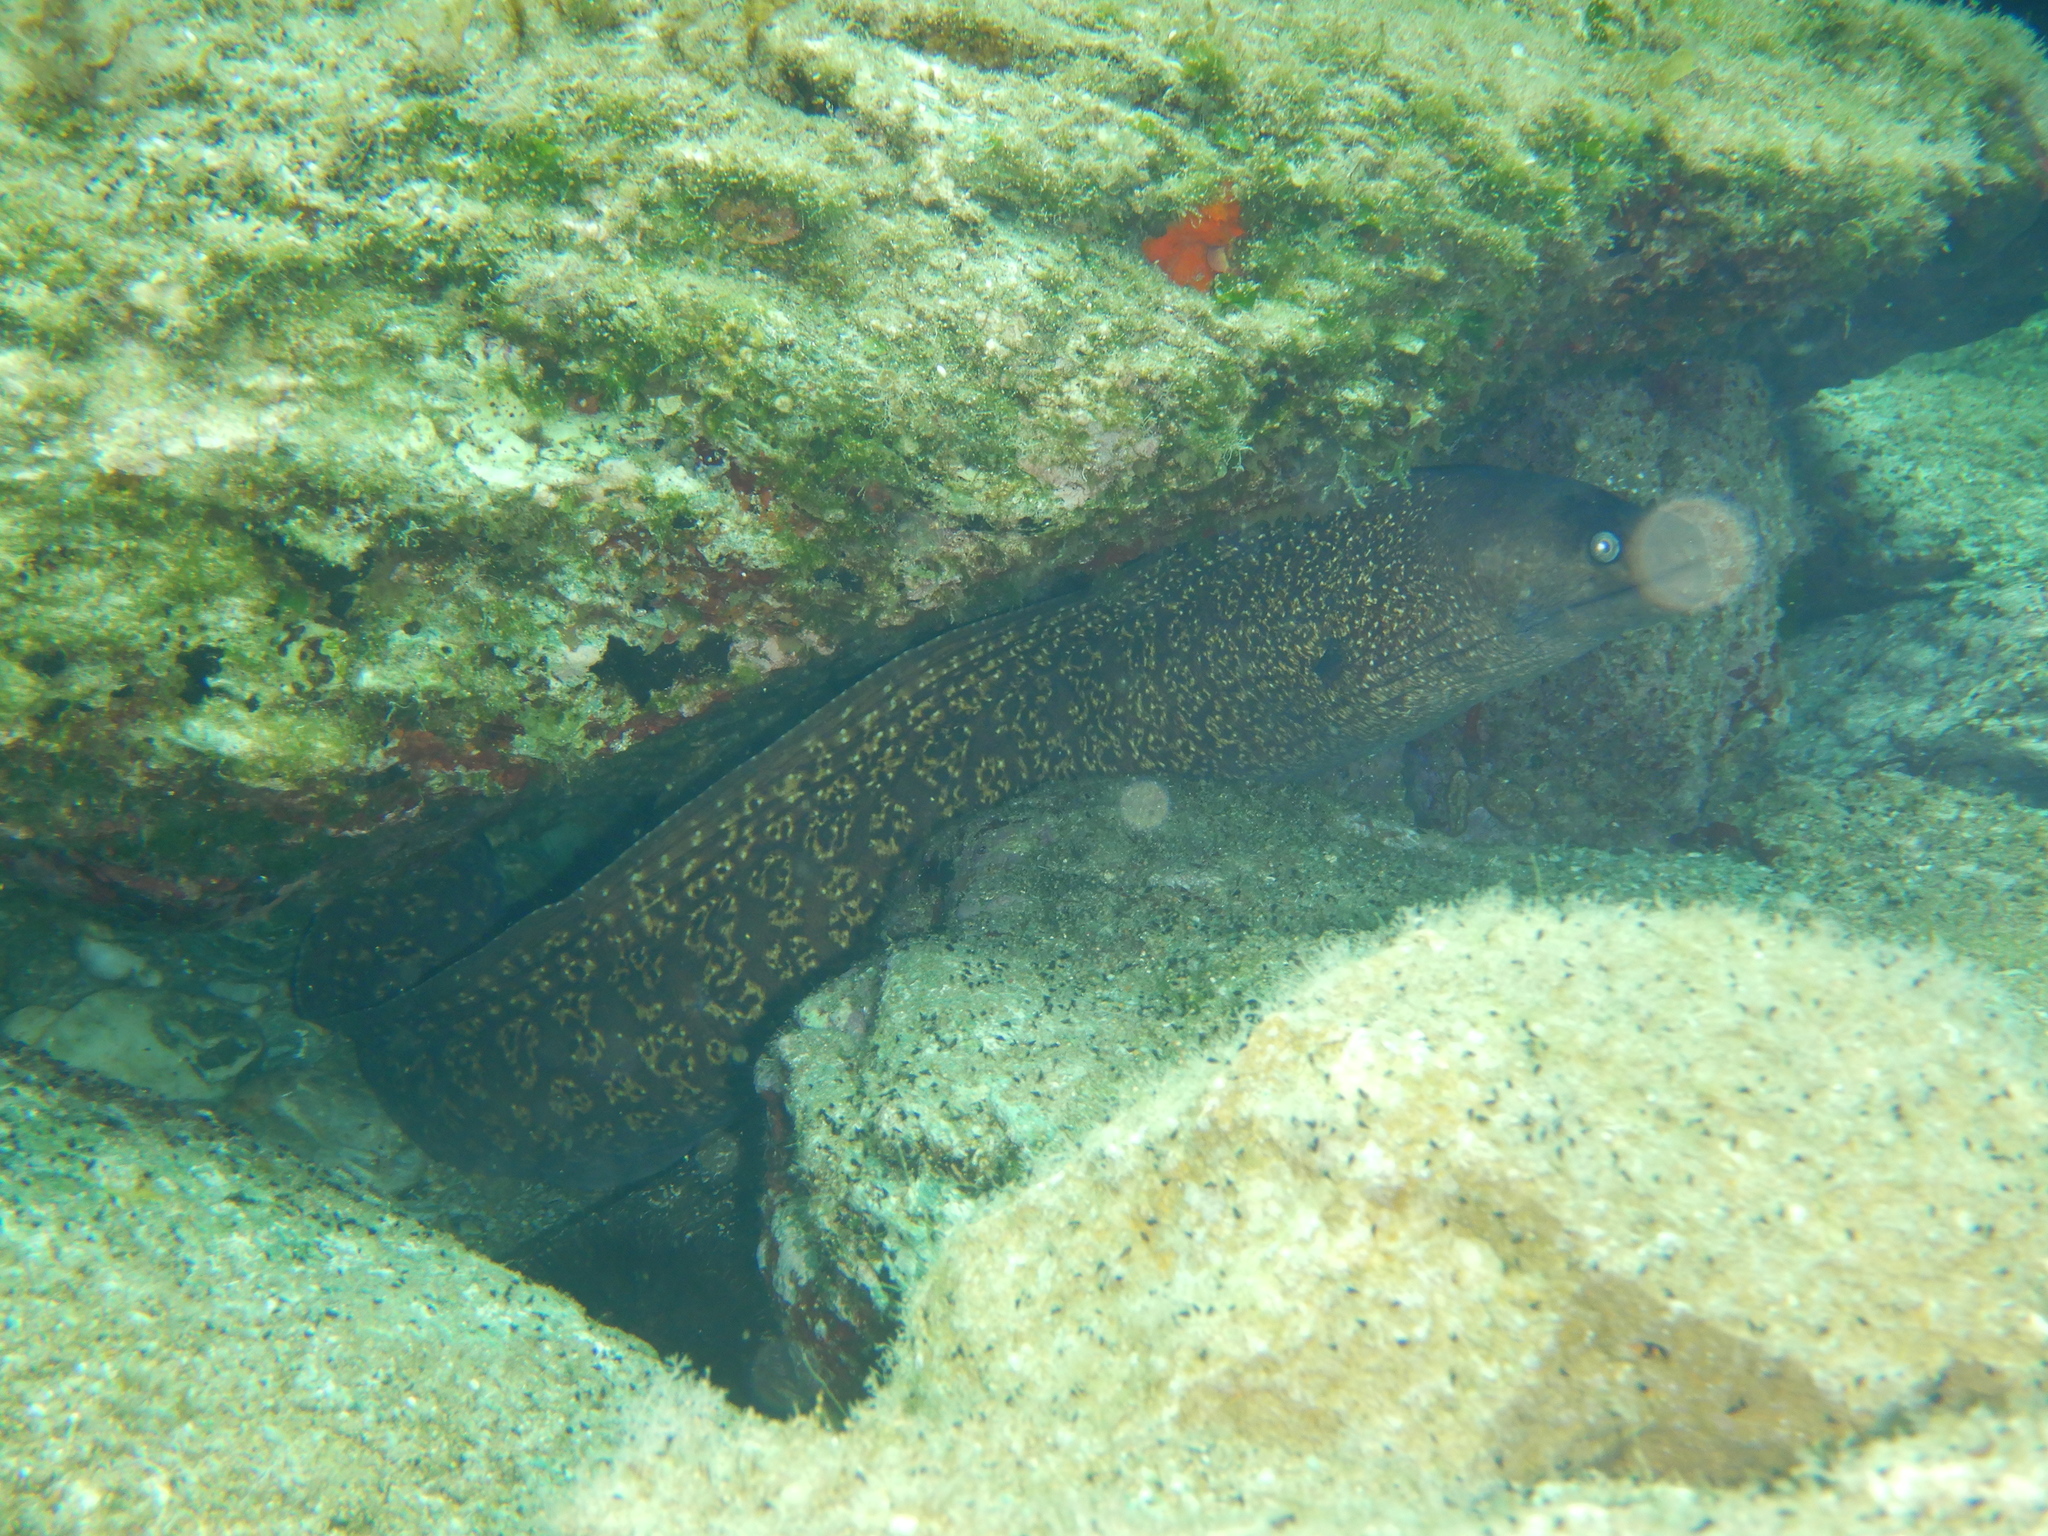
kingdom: Animalia
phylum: Chordata
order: Anguilliformes
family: Muraenidae
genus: Muraena
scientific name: Muraena helena
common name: Mediterranean moray
